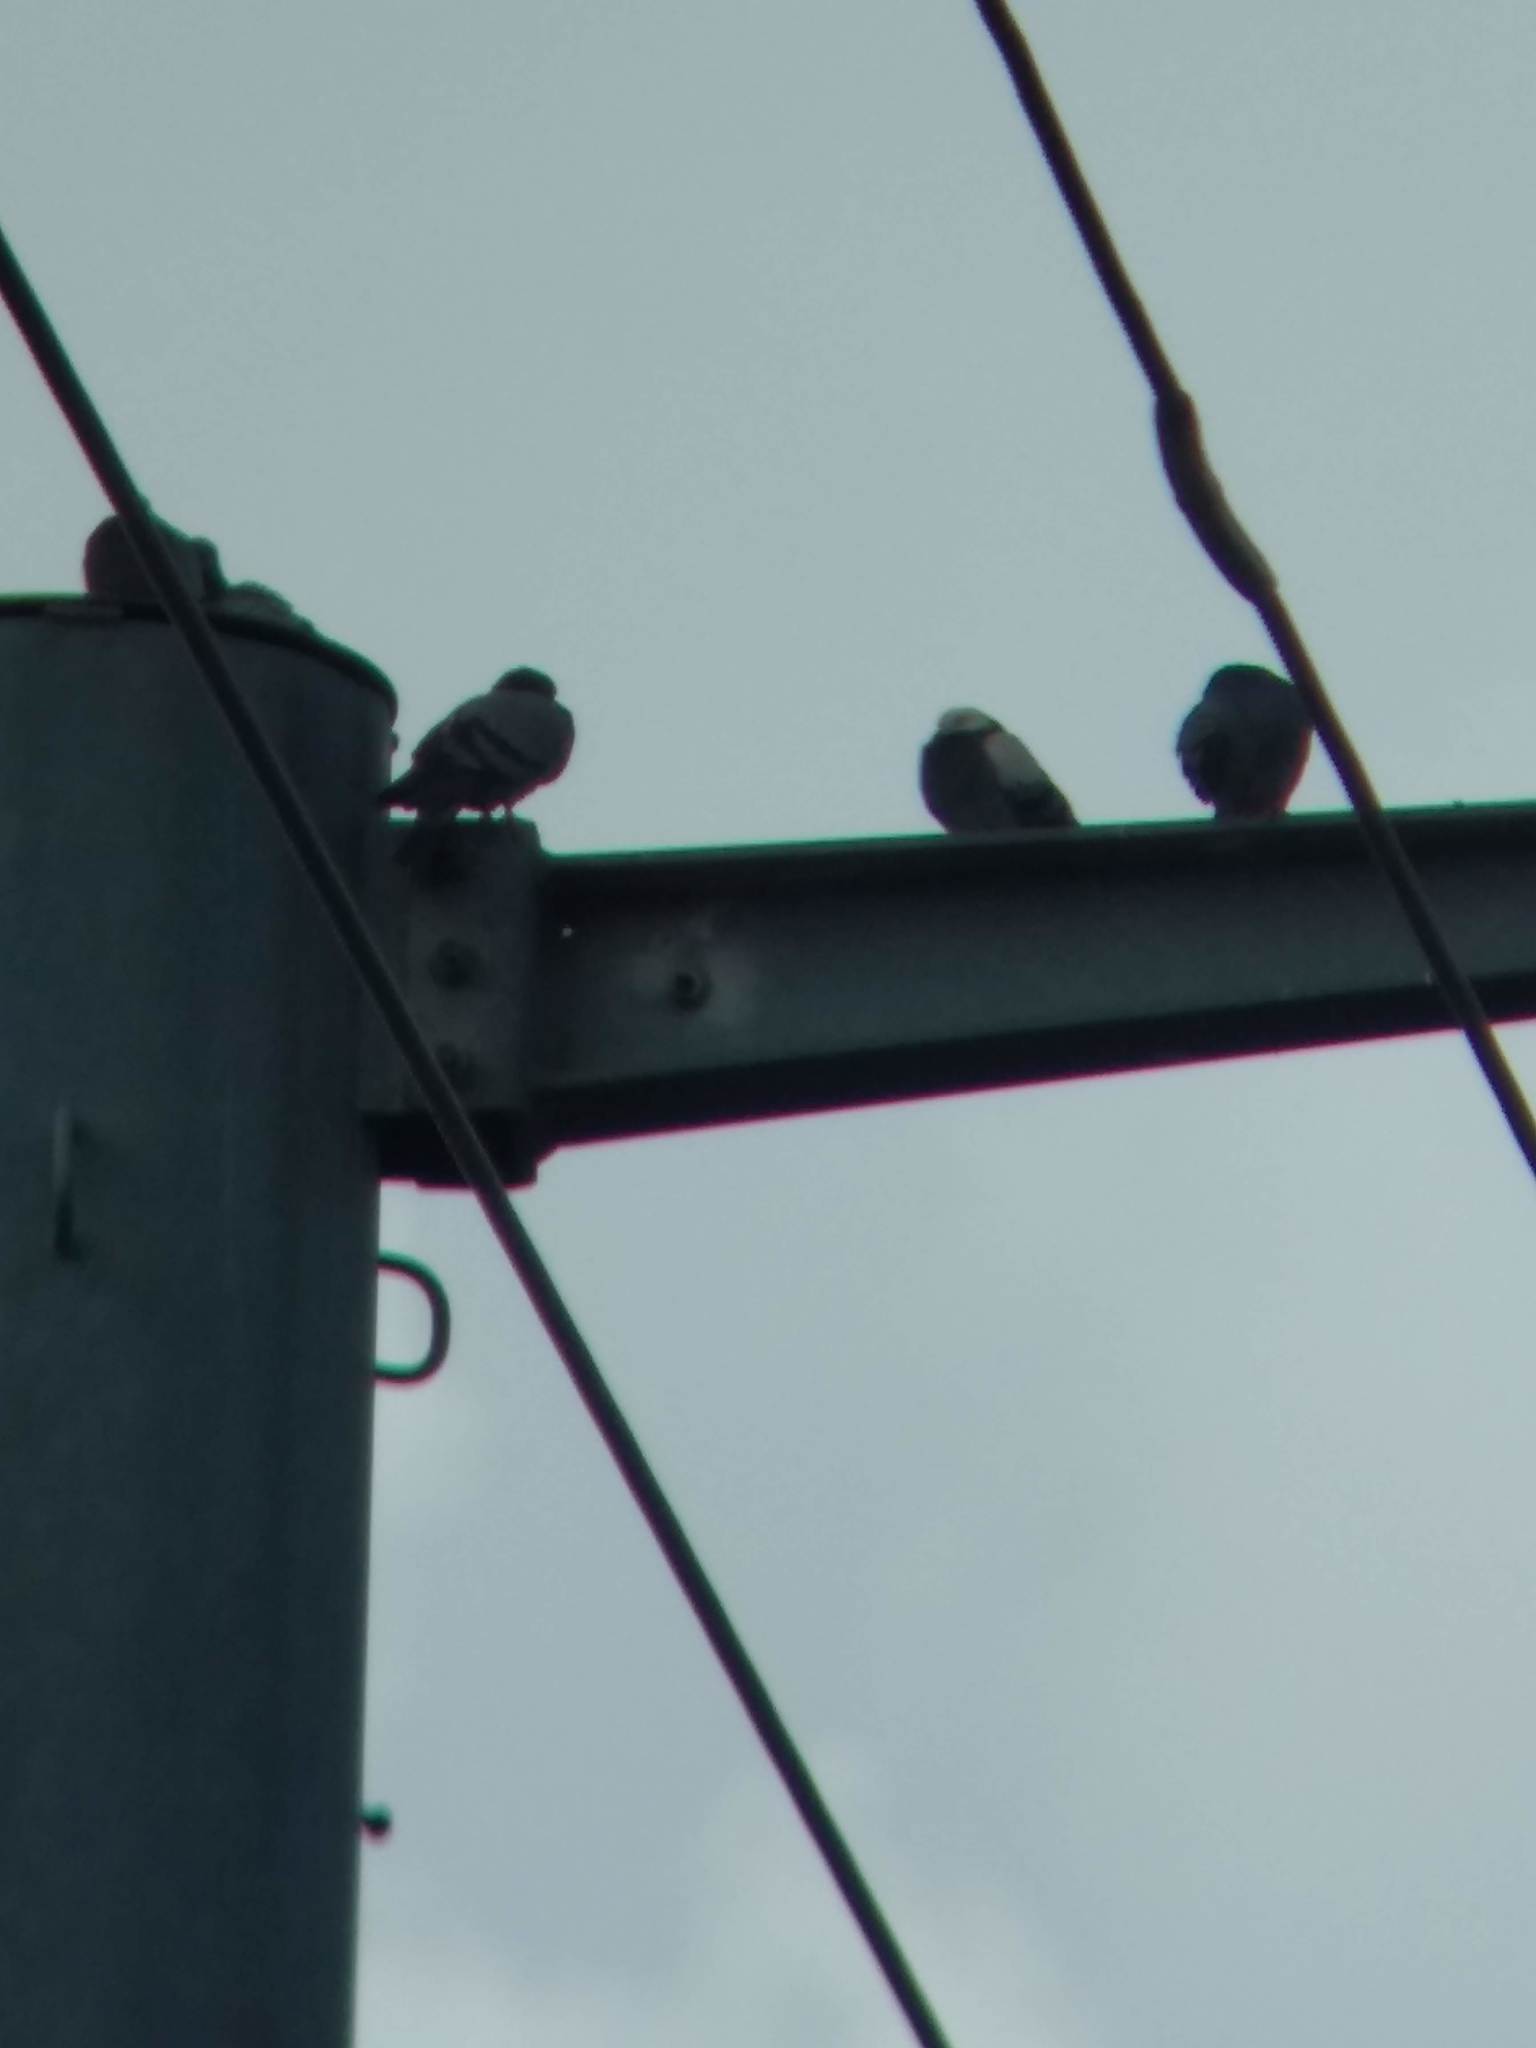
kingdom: Animalia
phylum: Chordata
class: Aves
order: Columbiformes
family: Columbidae
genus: Columba
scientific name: Columba livia
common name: Rock pigeon
